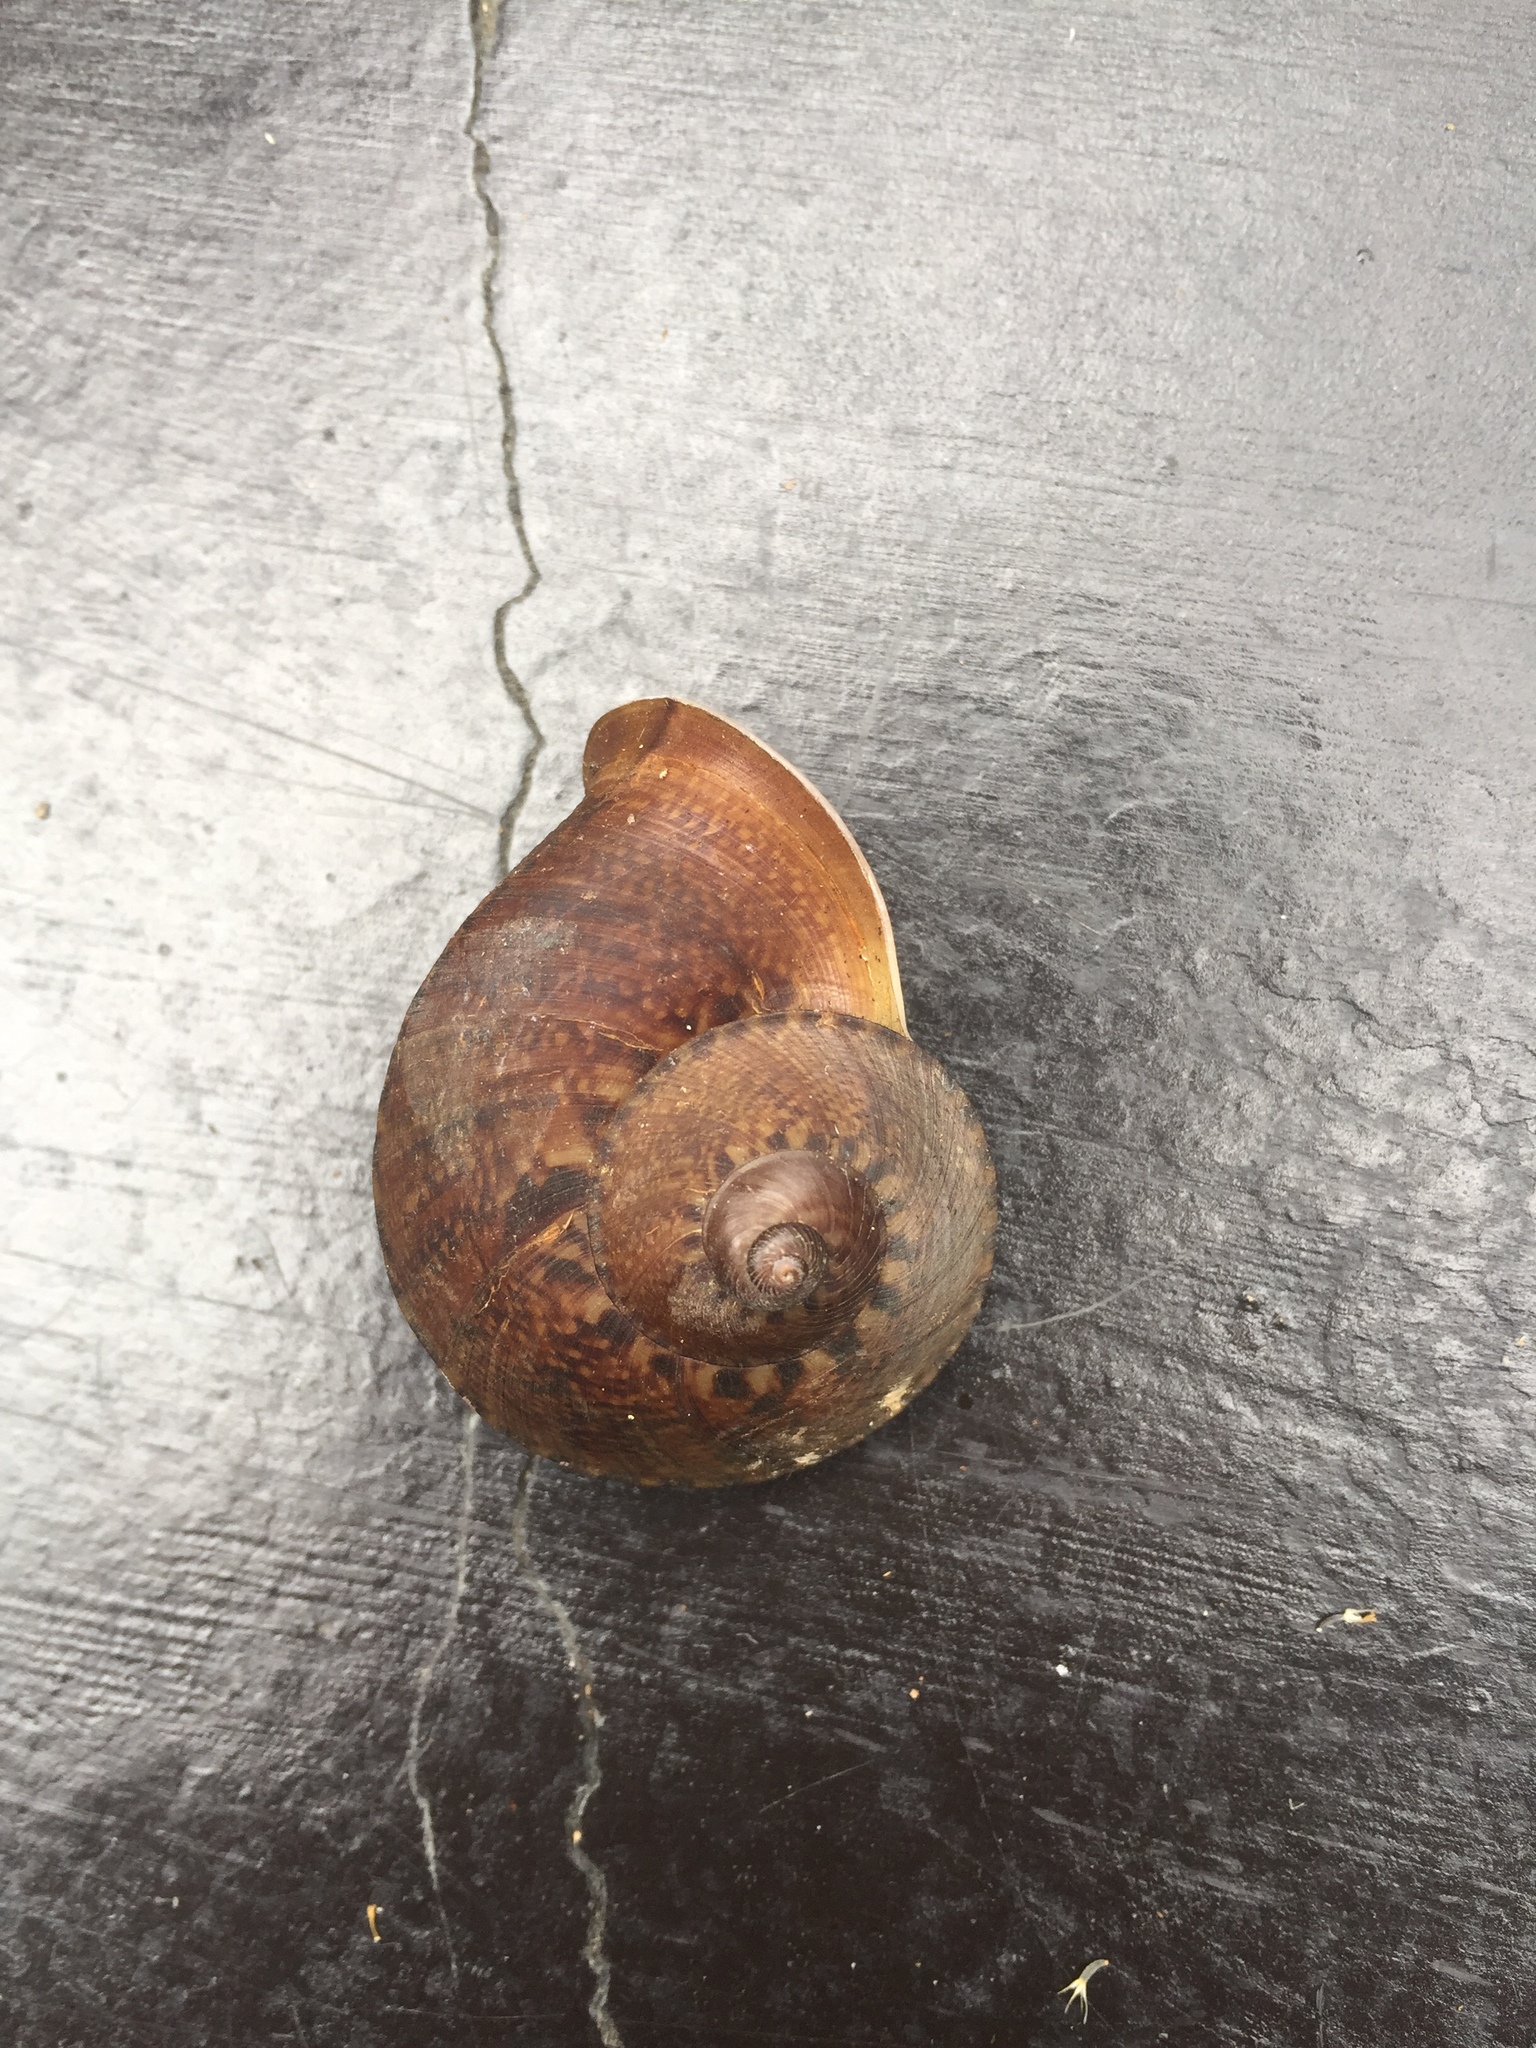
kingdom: Animalia
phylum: Mollusca
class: Gastropoda
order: Architaenioglossa
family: Cyclophoridae
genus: Cyclophorus
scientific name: Cyclophorus perdix
